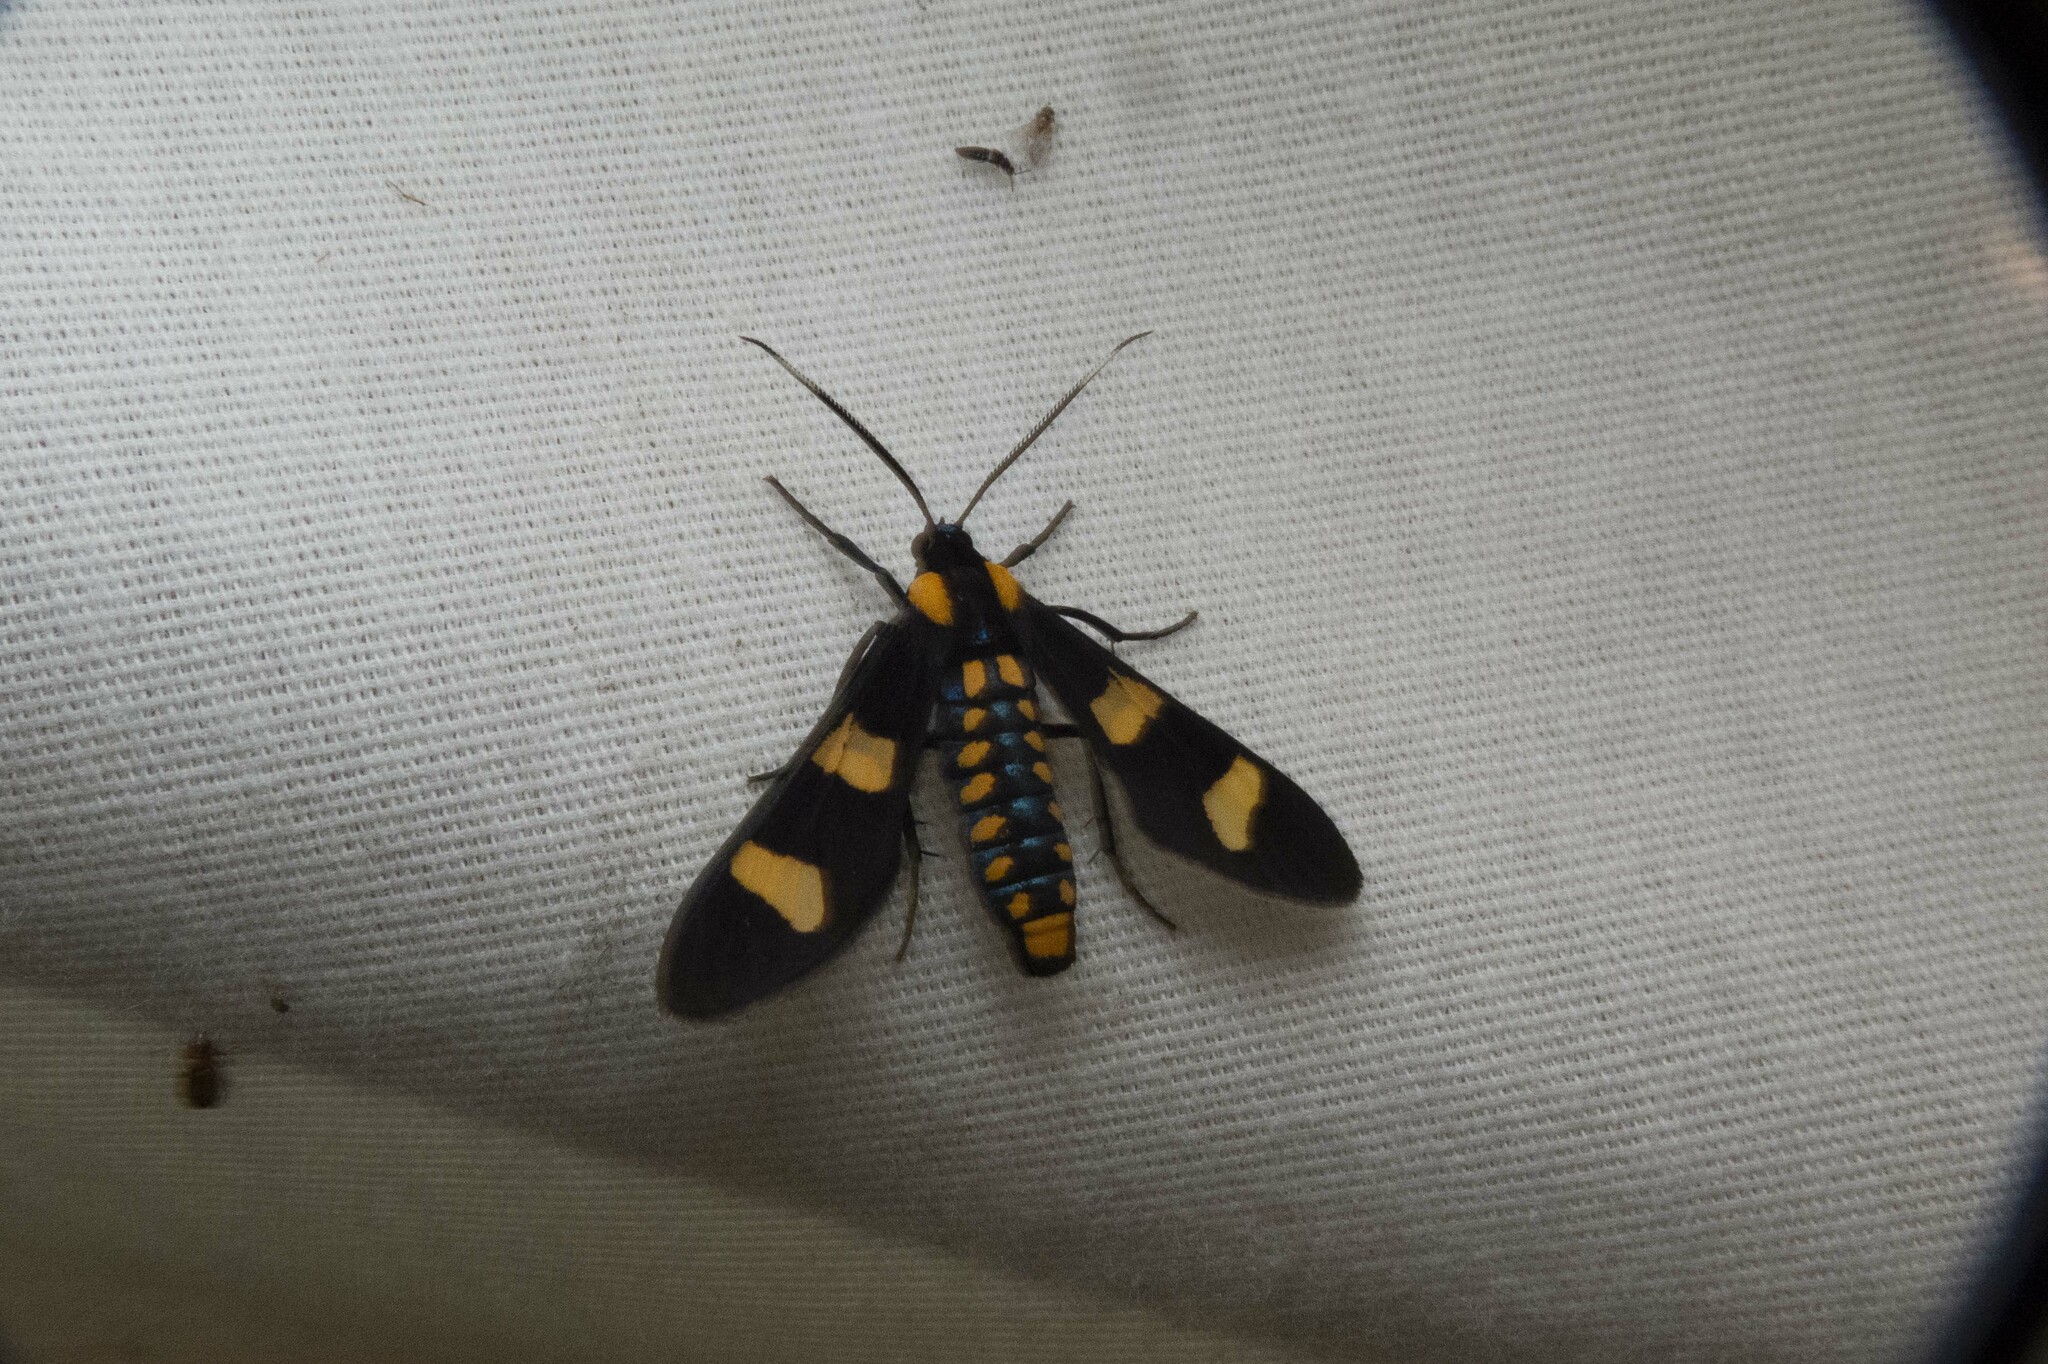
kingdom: Animalia
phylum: Arthropoda
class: Insecta
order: Lepidoptera
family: Erebidae
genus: Phoenicoprocta
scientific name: Phoenicoprocta hampsonii
